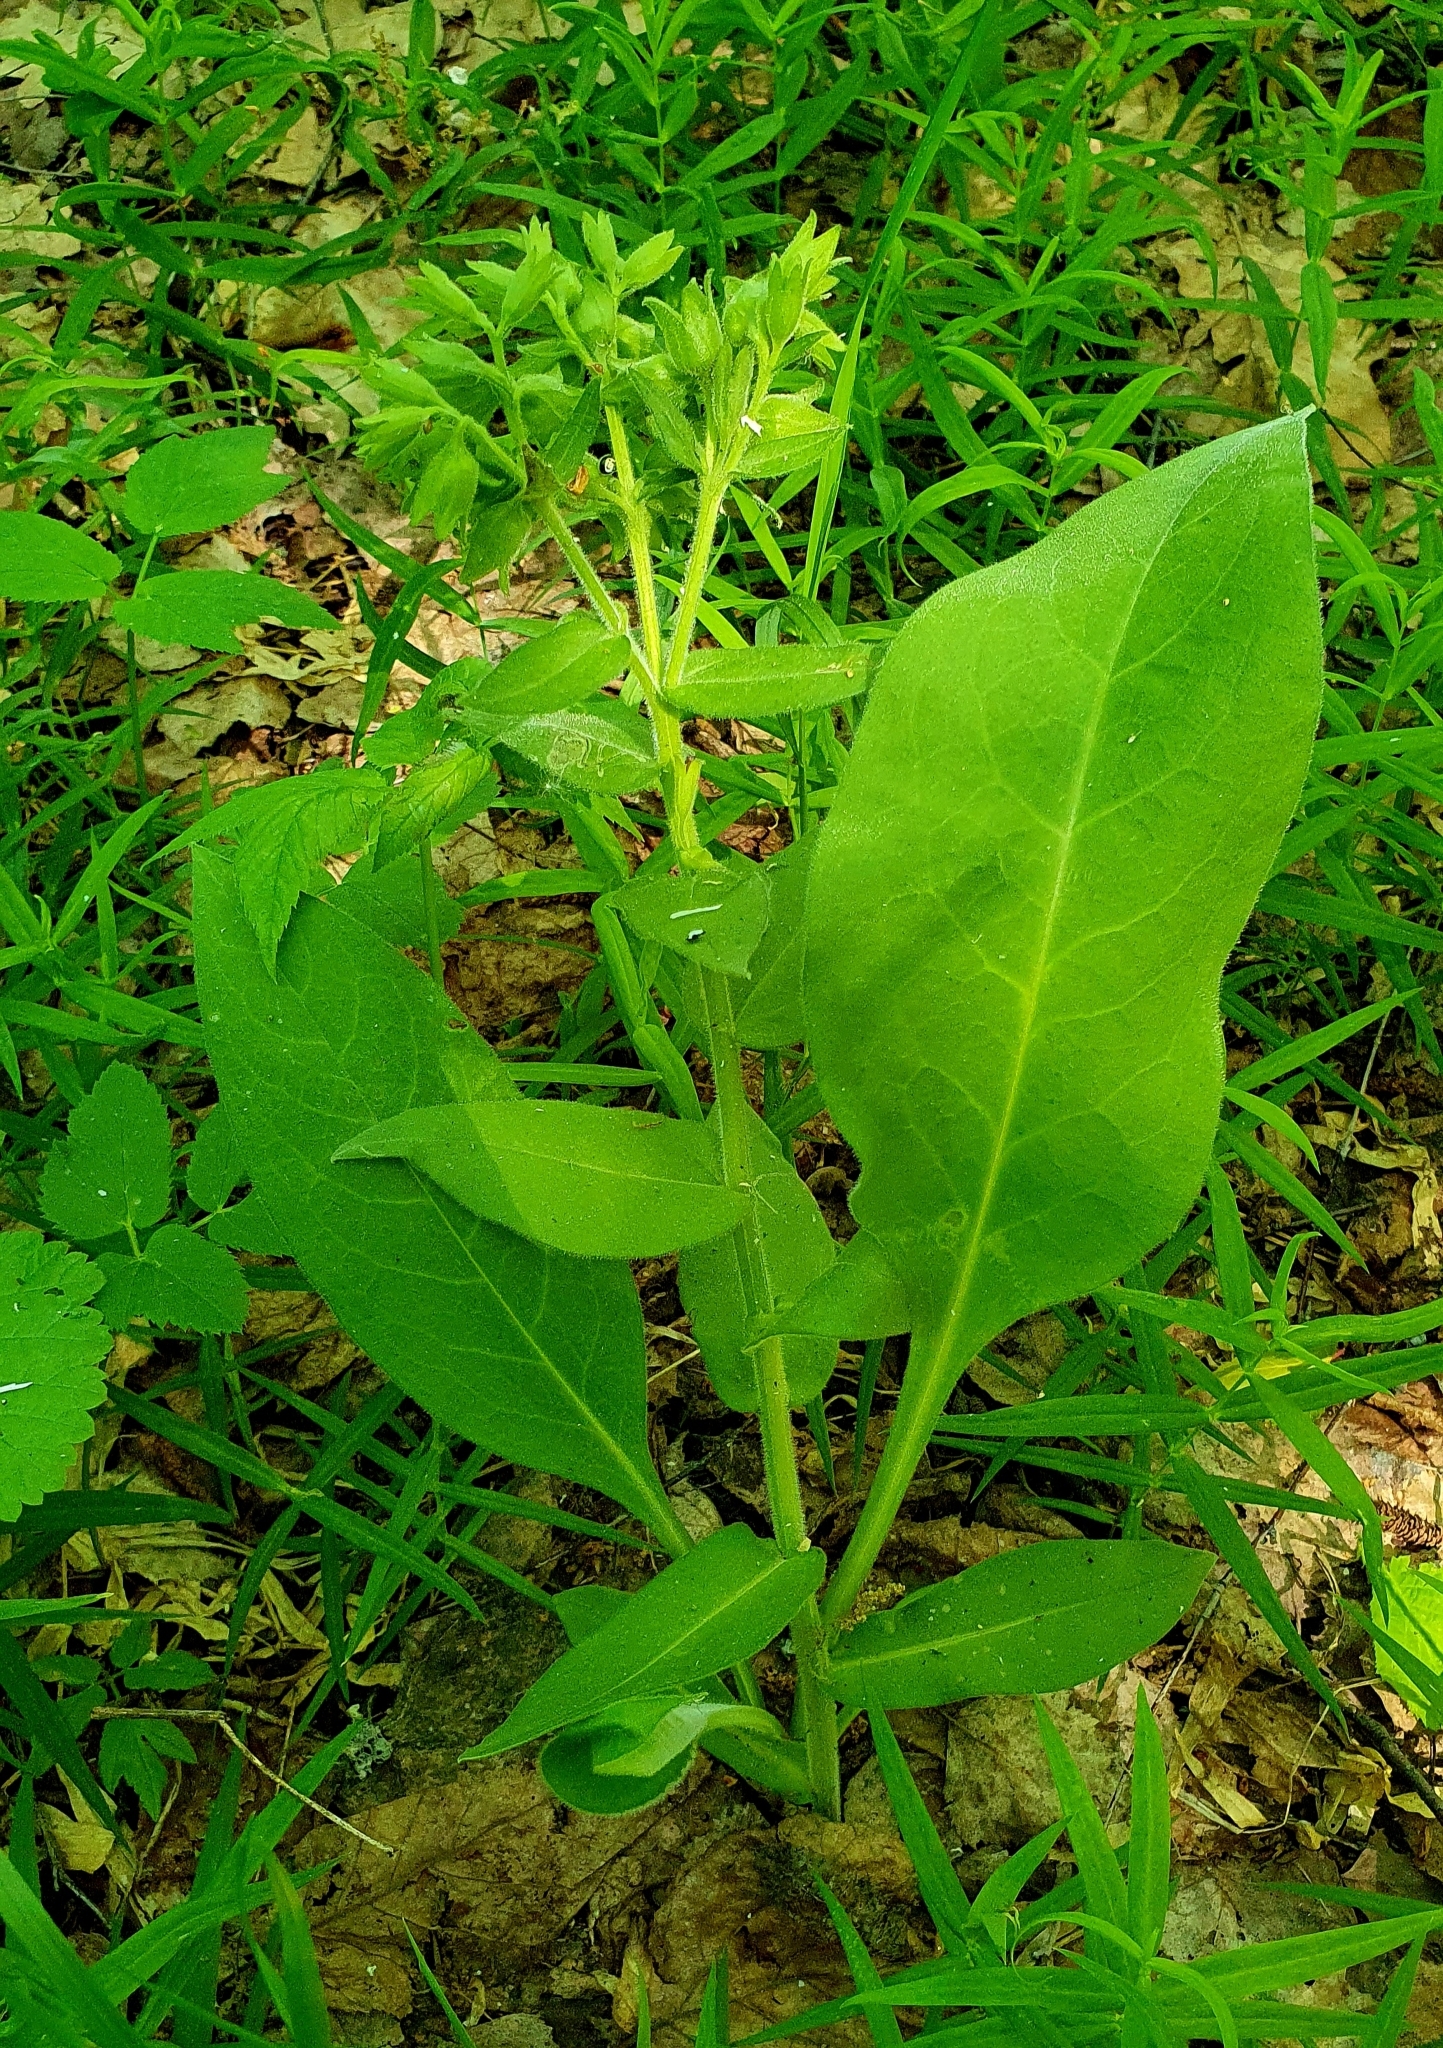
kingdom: Plantae
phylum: Tracheophyta
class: Magnoliopsida
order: Boraginales
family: Boraginaceae
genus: Pulmonaria
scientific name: Pulmonaria mollis
